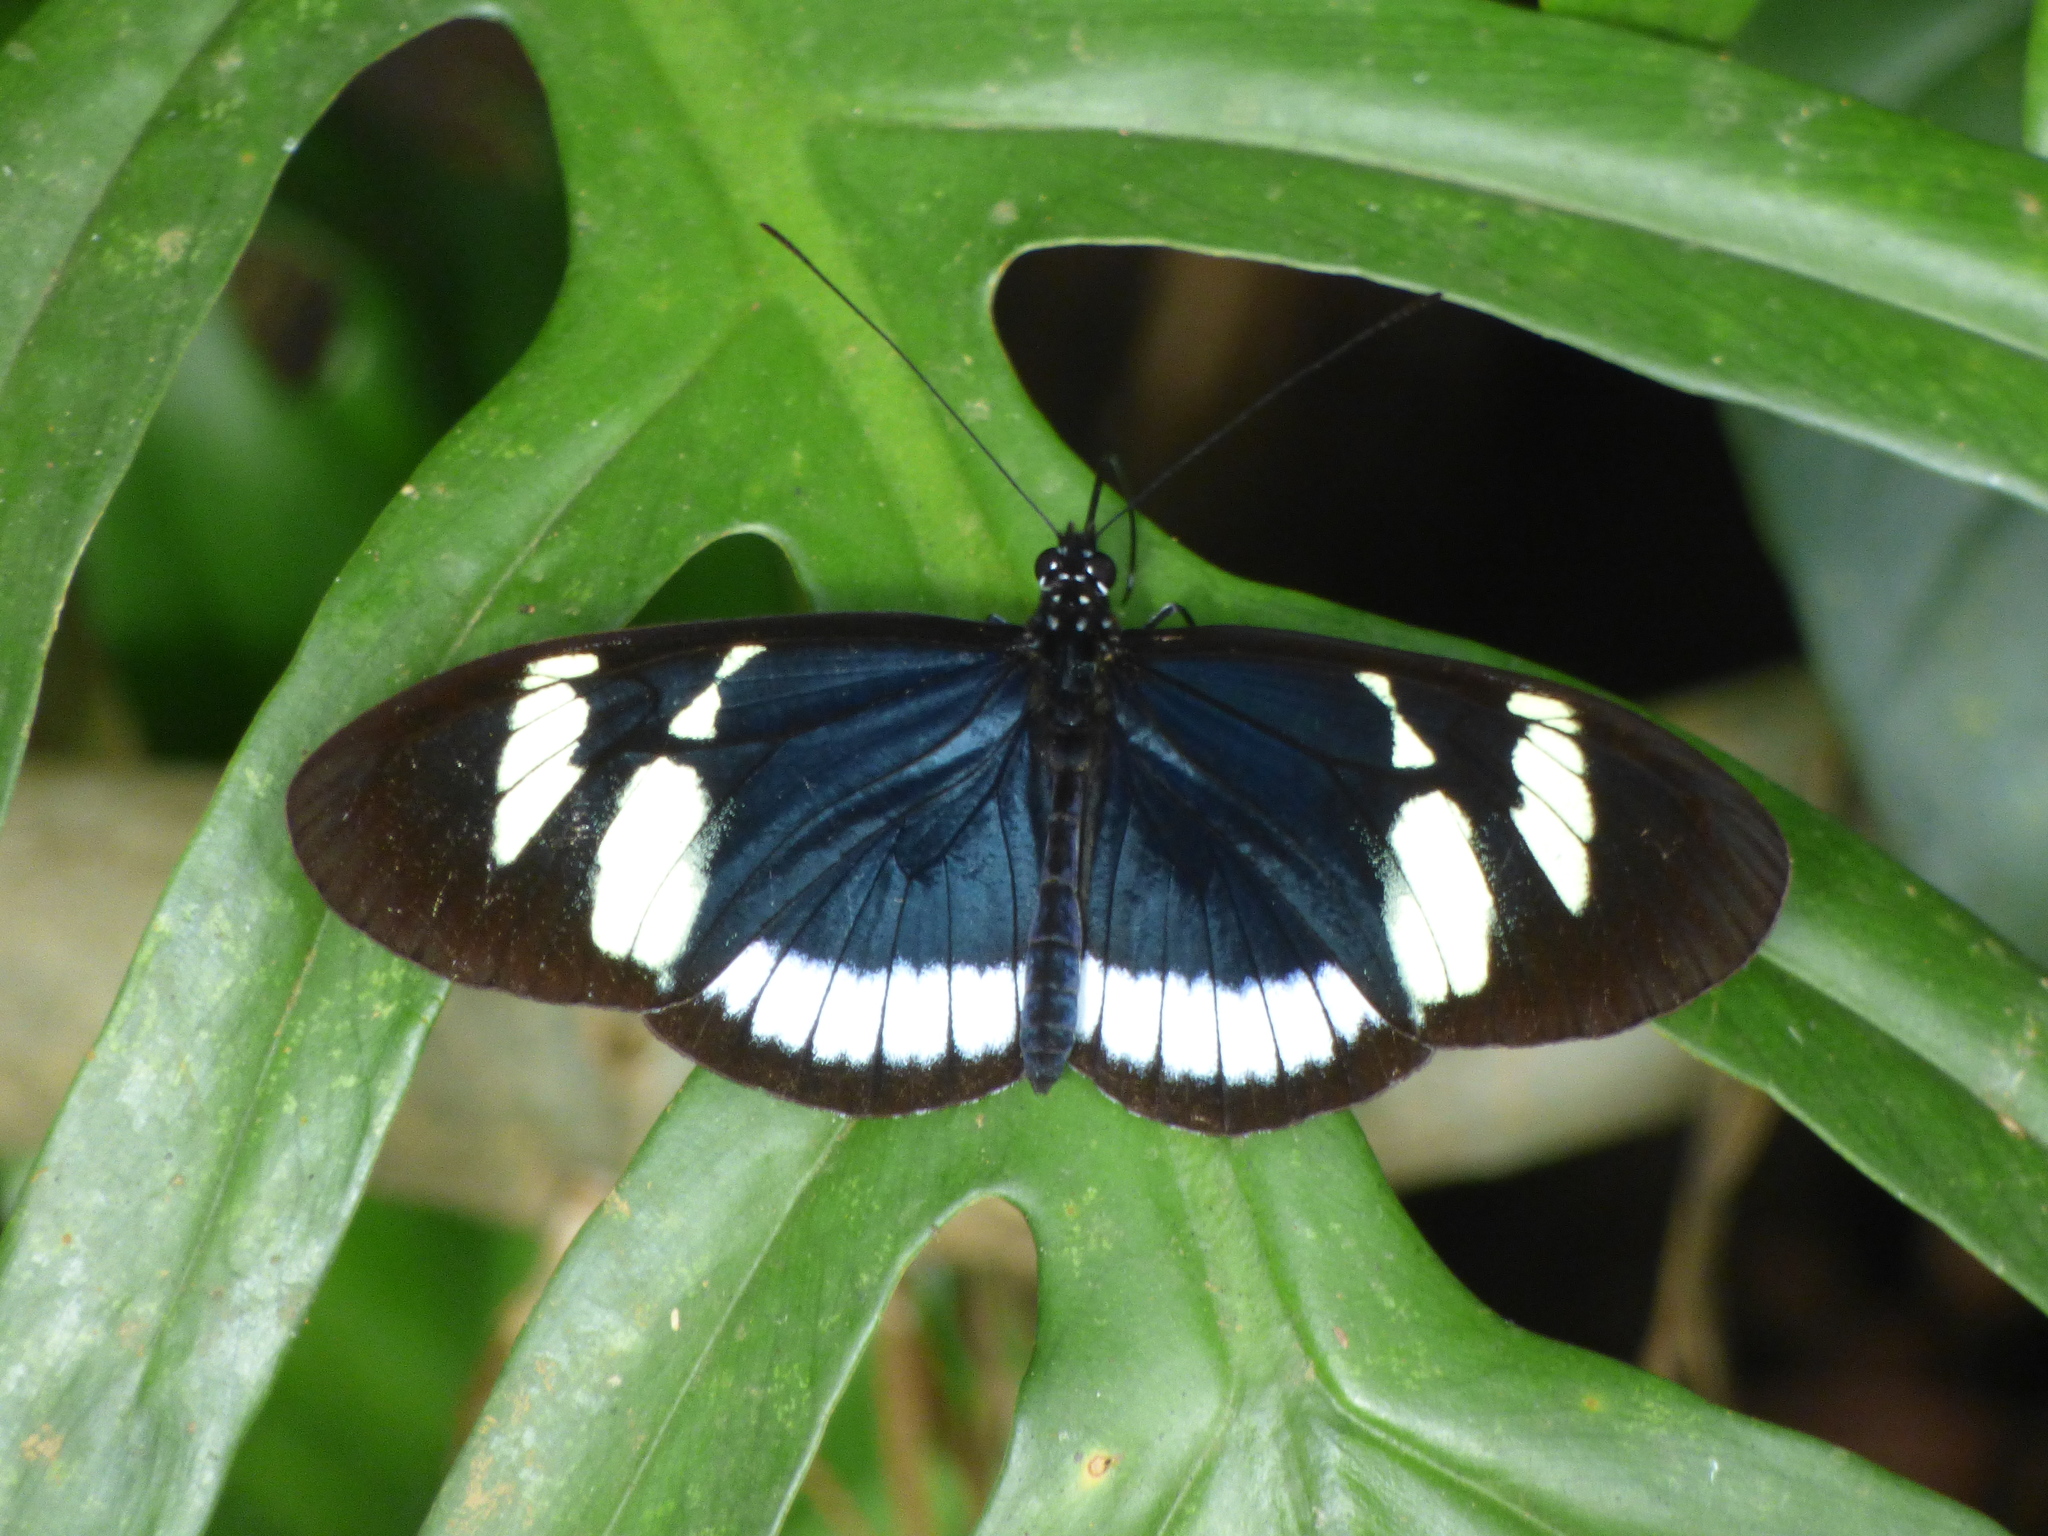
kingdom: Animalia
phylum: Arthropoda
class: Insecta
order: Lepidoptera
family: Nymphalidae
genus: Heliconius
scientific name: Heliconius cydno
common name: Cydno longwing
